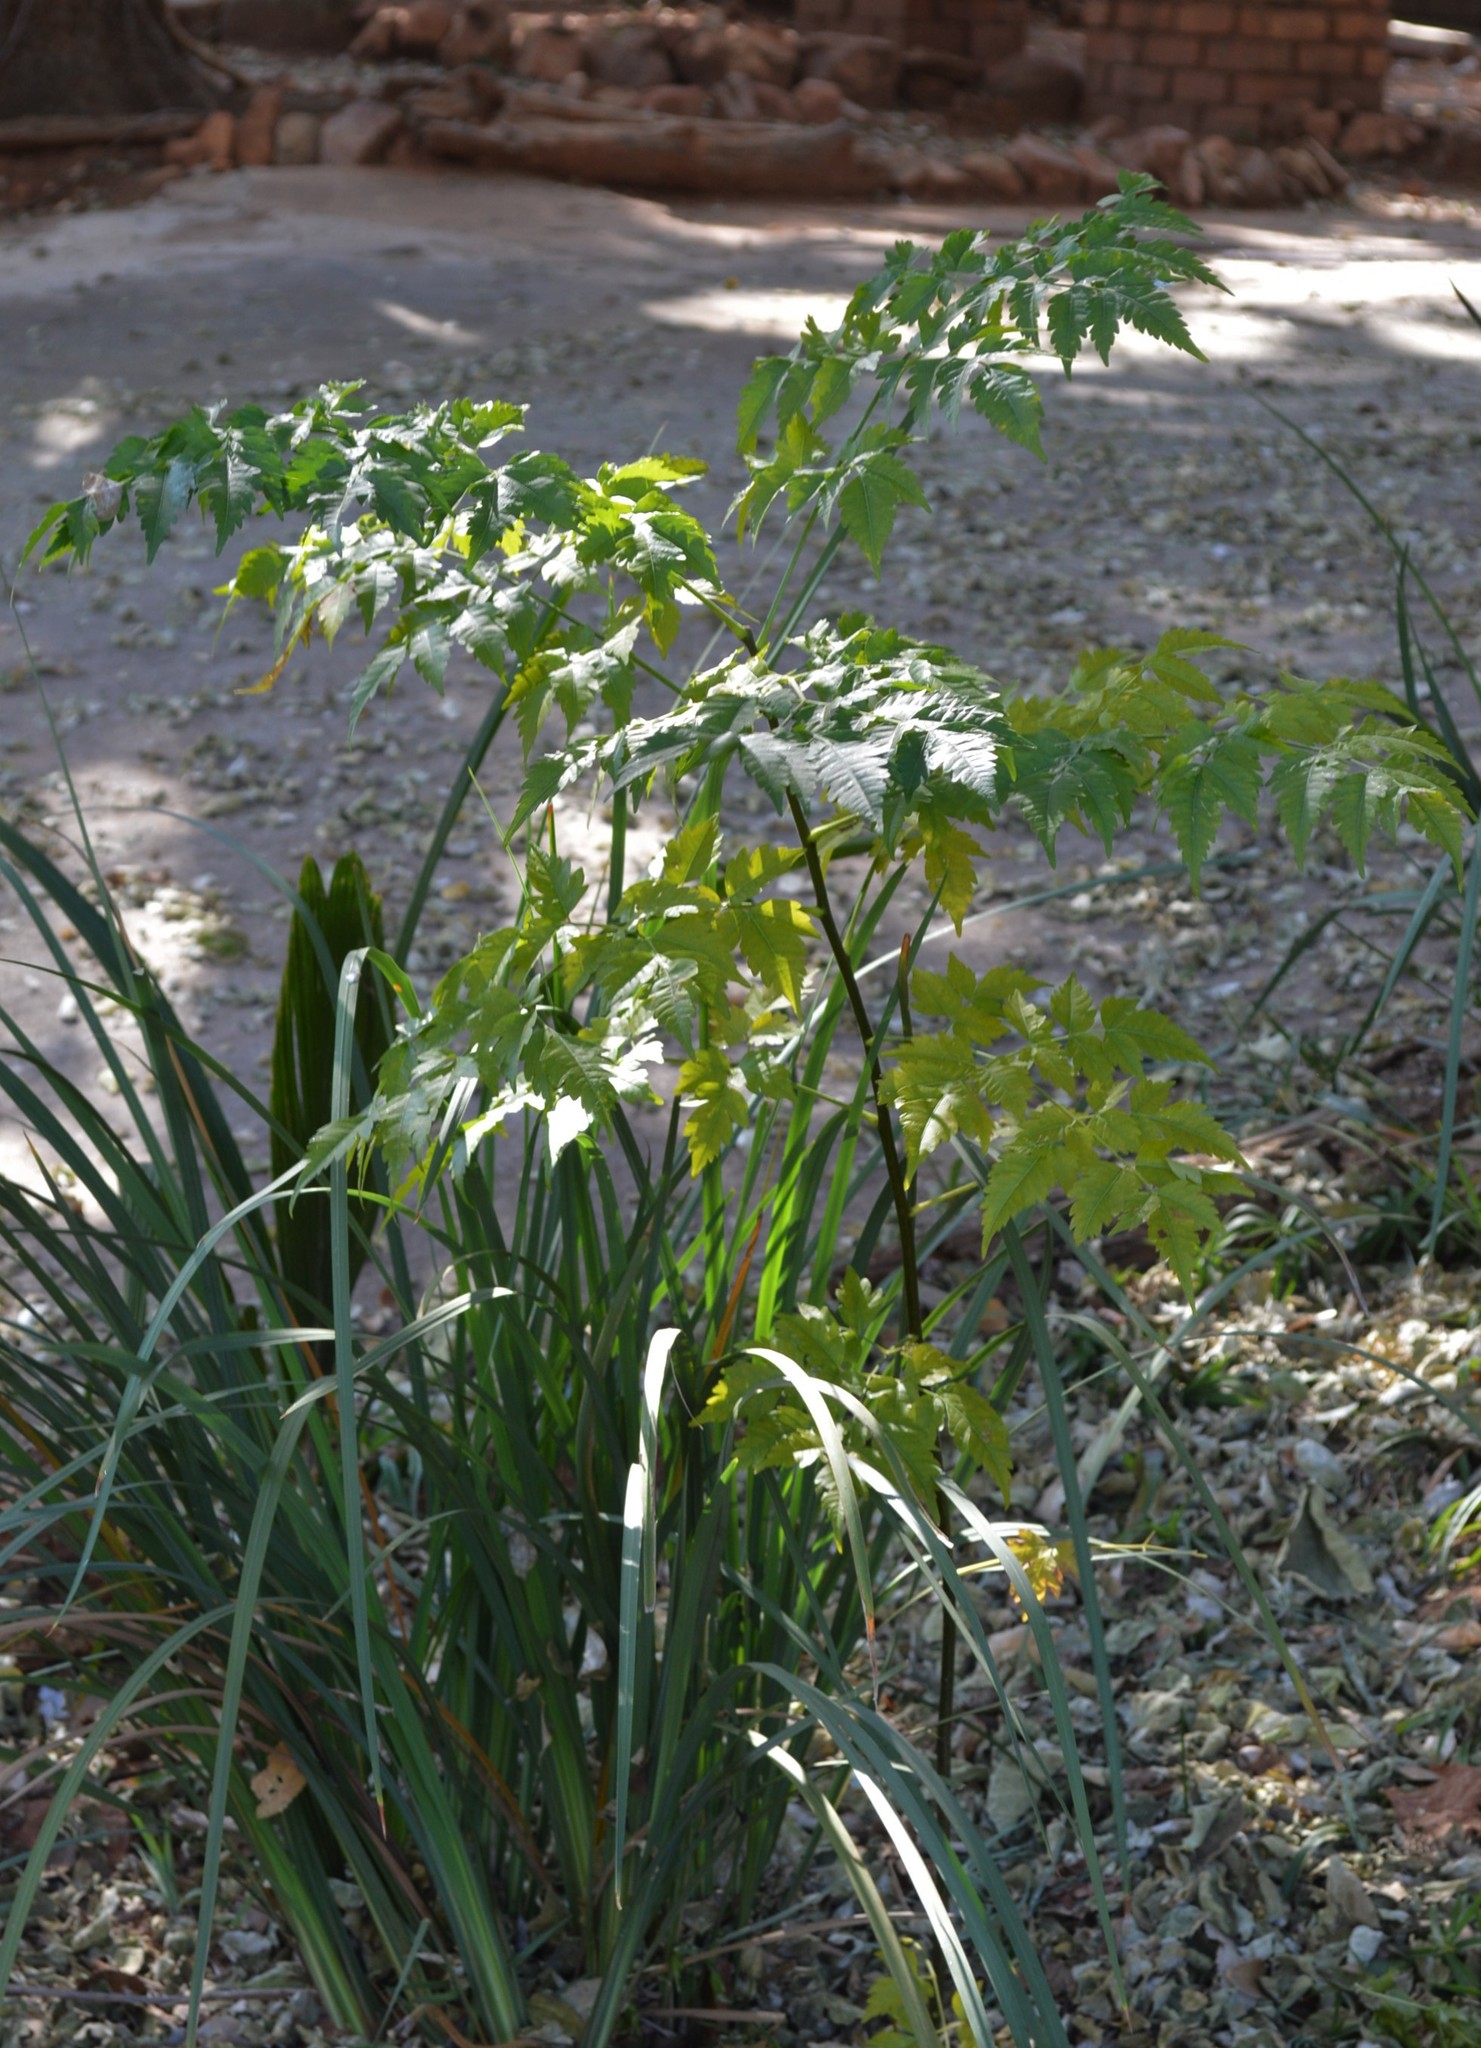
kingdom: Plantae
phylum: Tracheophyta
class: Magnoliopsida
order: Sapindales
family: Meliaceae
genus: Melia
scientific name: Melia azedarach
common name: Chinaberrytree
